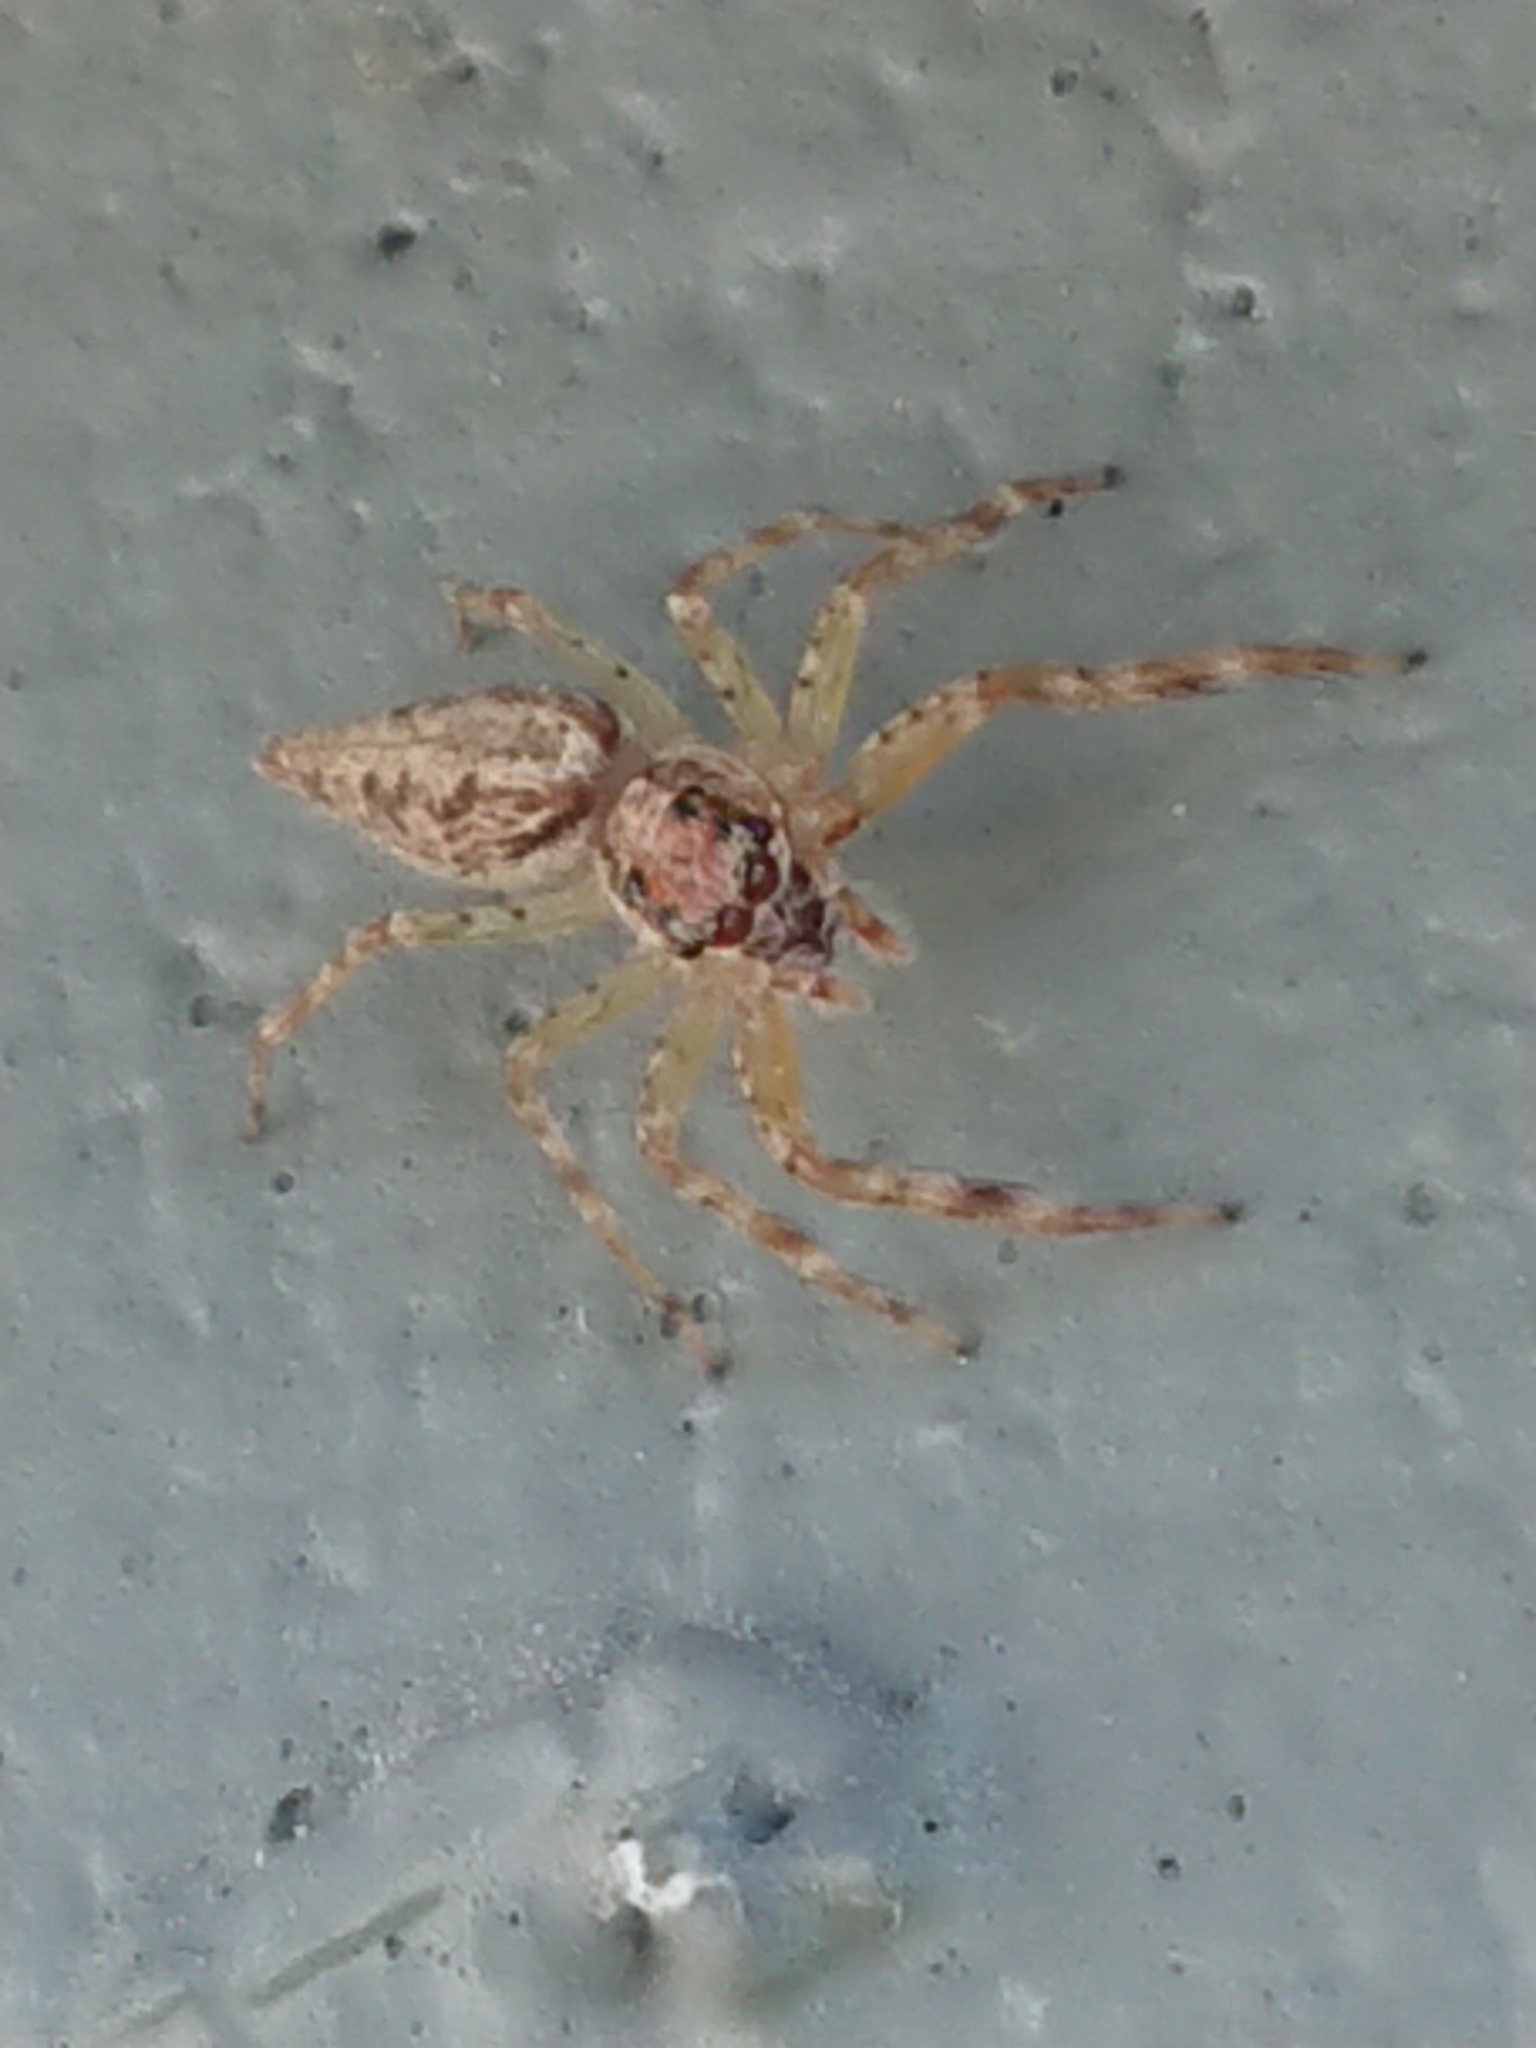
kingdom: Animalia
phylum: Arthropoda
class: Arachnida
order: Araneae
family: Salticidae
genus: Helpis
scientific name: Helpis minitabunda
